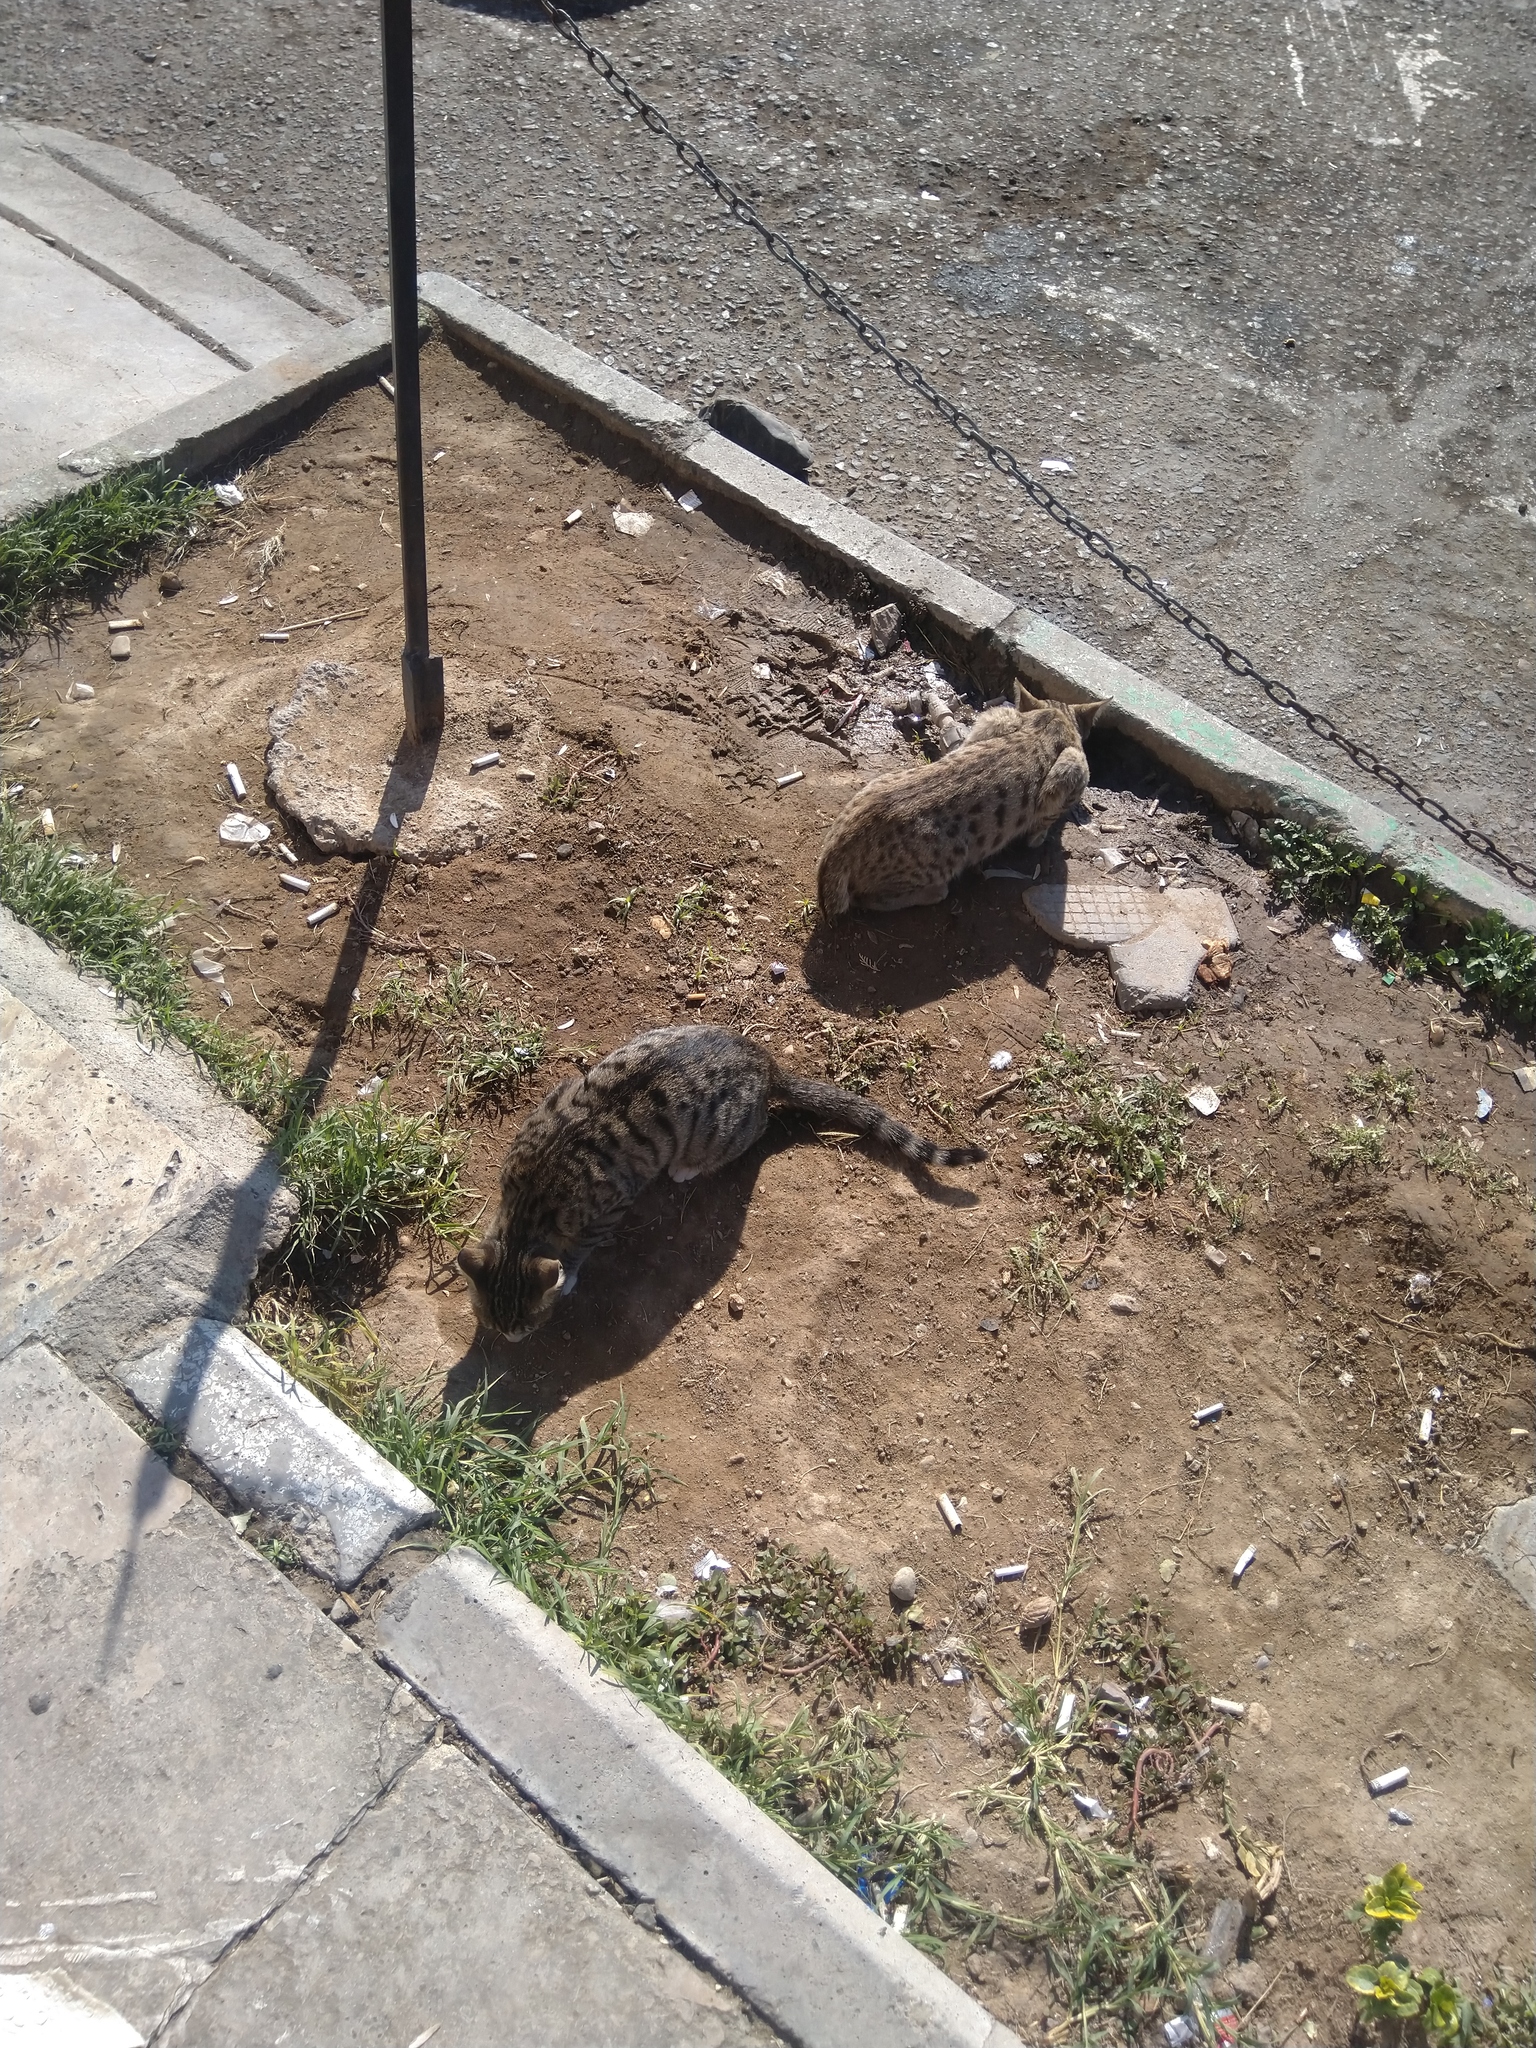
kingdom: Animalia
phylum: Chordata
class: Mammalia
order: Carnivora
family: Felidae
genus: Felis
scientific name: Felis catus
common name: Domestic cat
